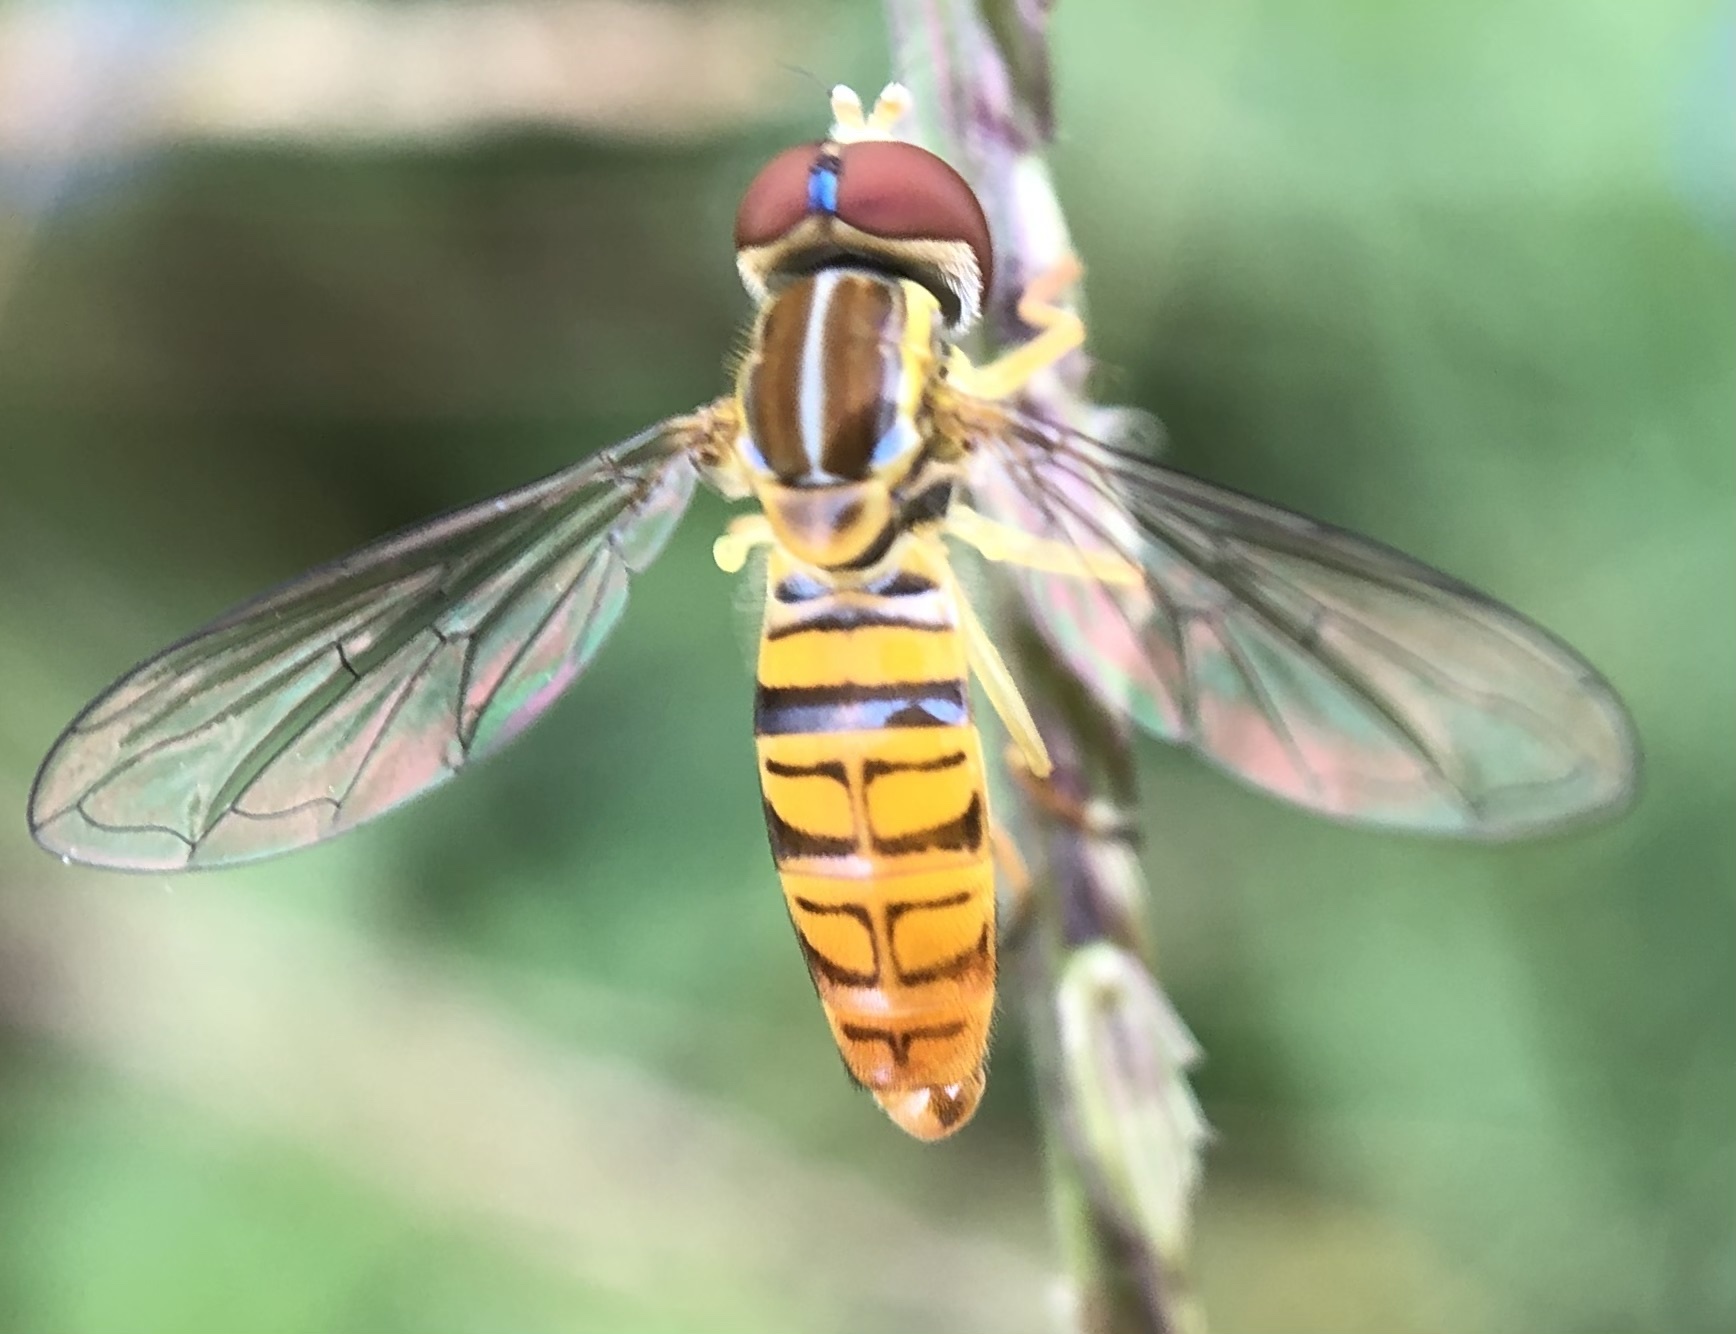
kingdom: Animalia
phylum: Arthropoda
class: Insecta
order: Diptera
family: Syrphidae
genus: Toxomerus
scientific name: Toxomerus politus
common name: Maize calligrapher
